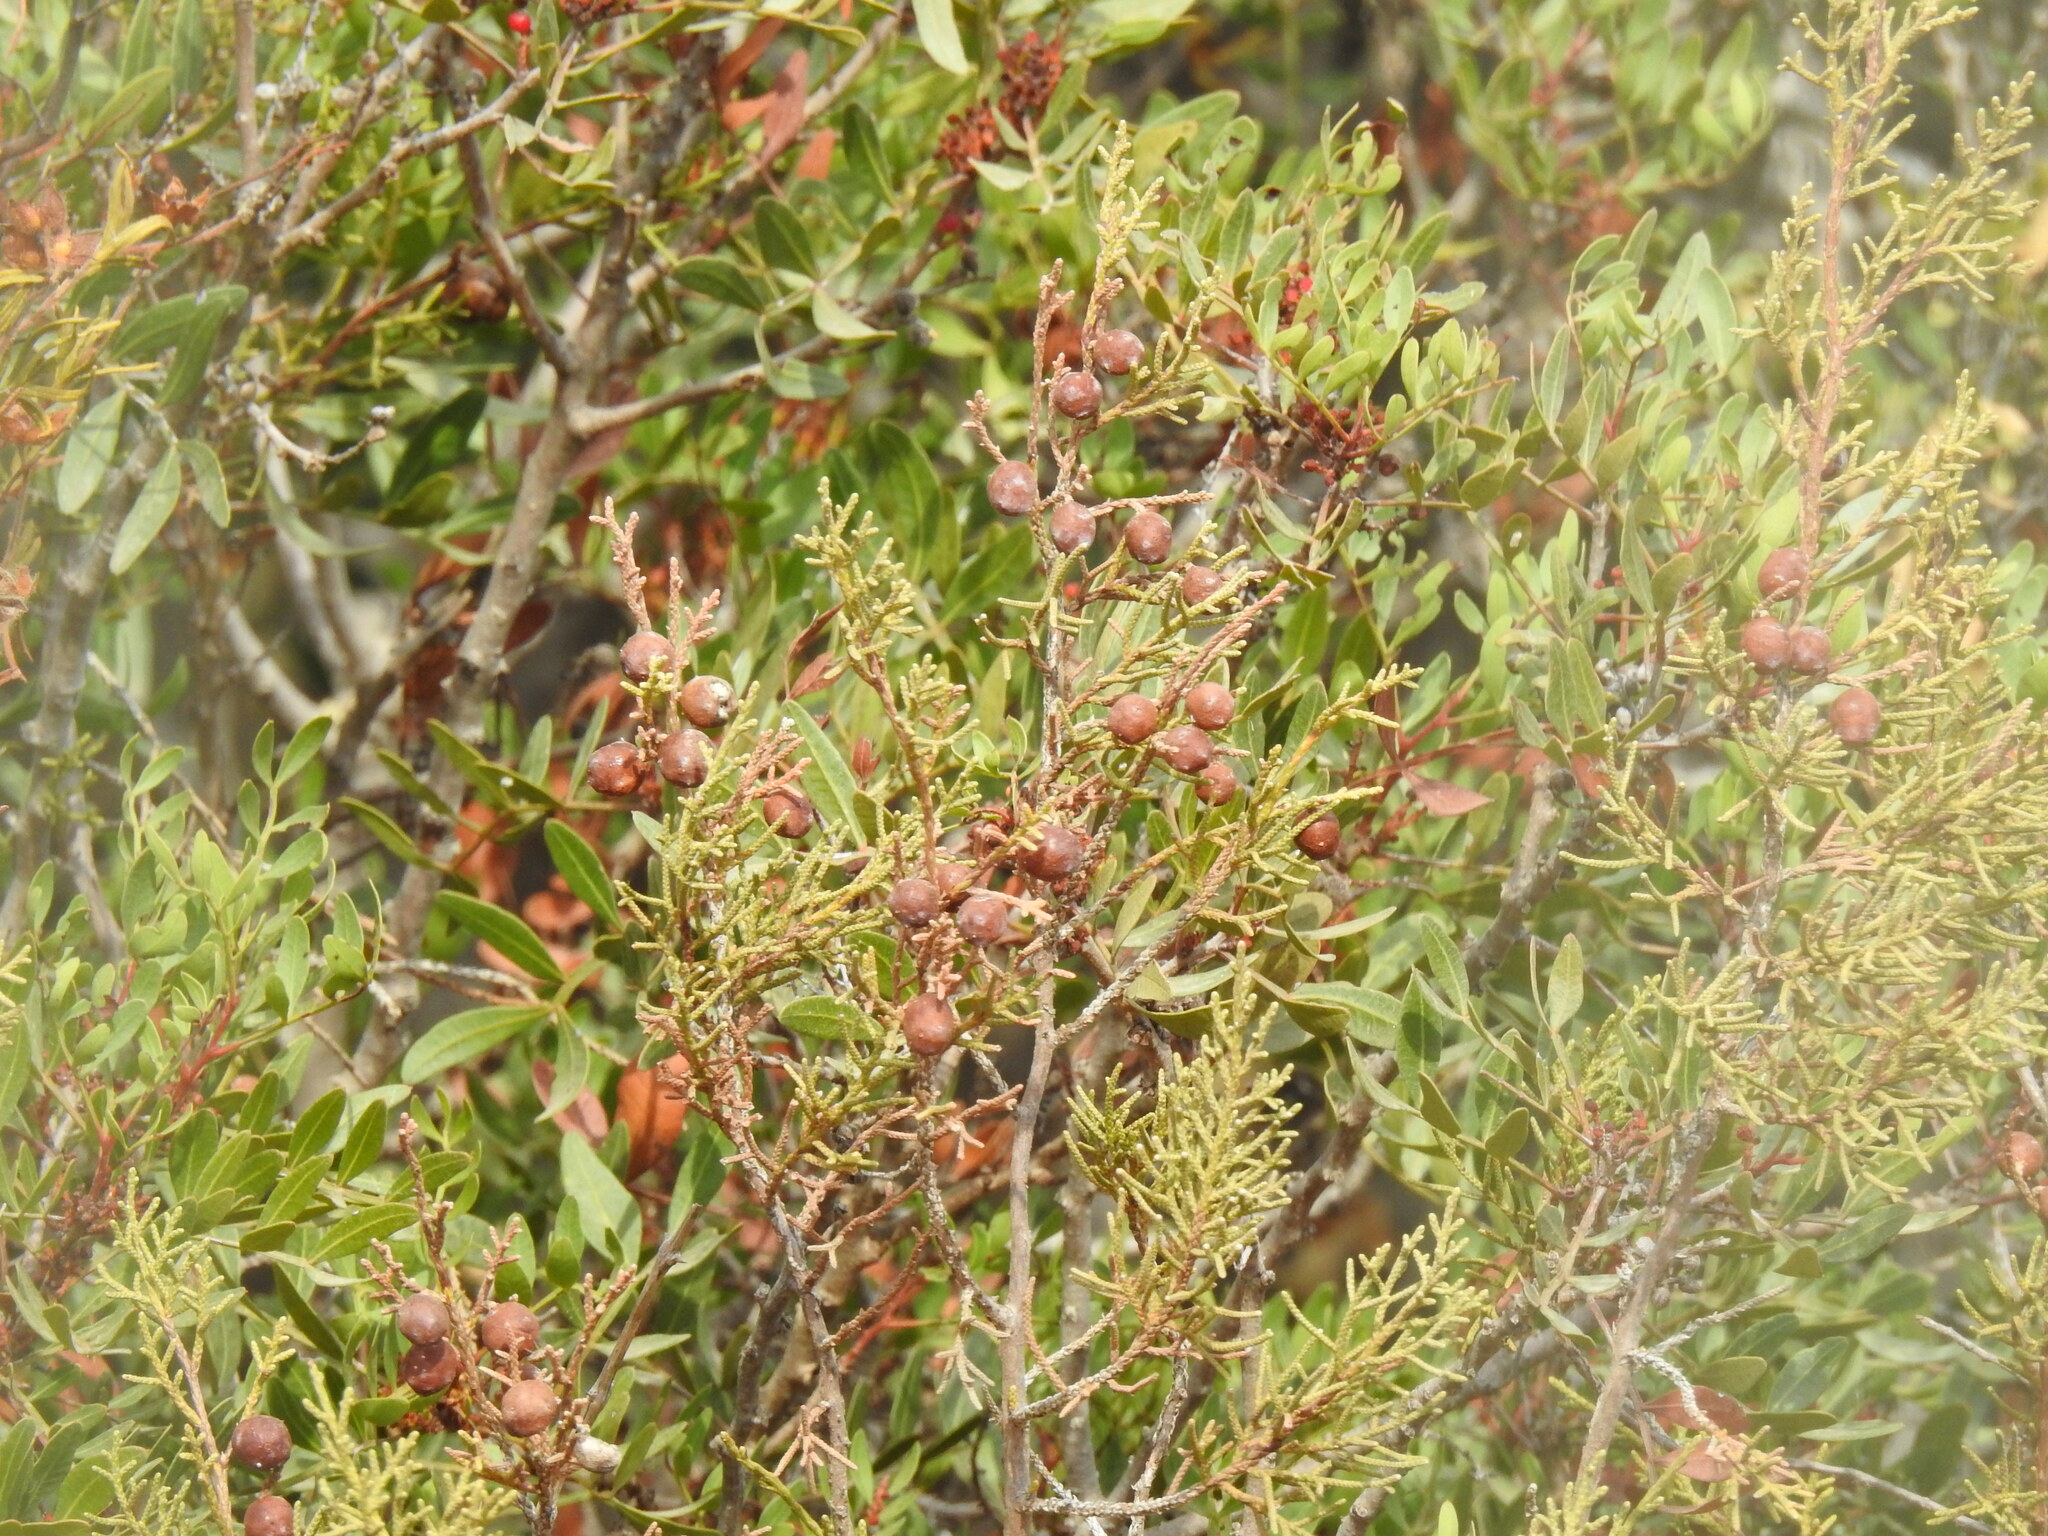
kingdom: Plantae
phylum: Tracheophyta
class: Pinopsida
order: Pinales
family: Cupressaceae
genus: Juniperus
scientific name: Juniperus phoenicea
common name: Phoenician juniper
